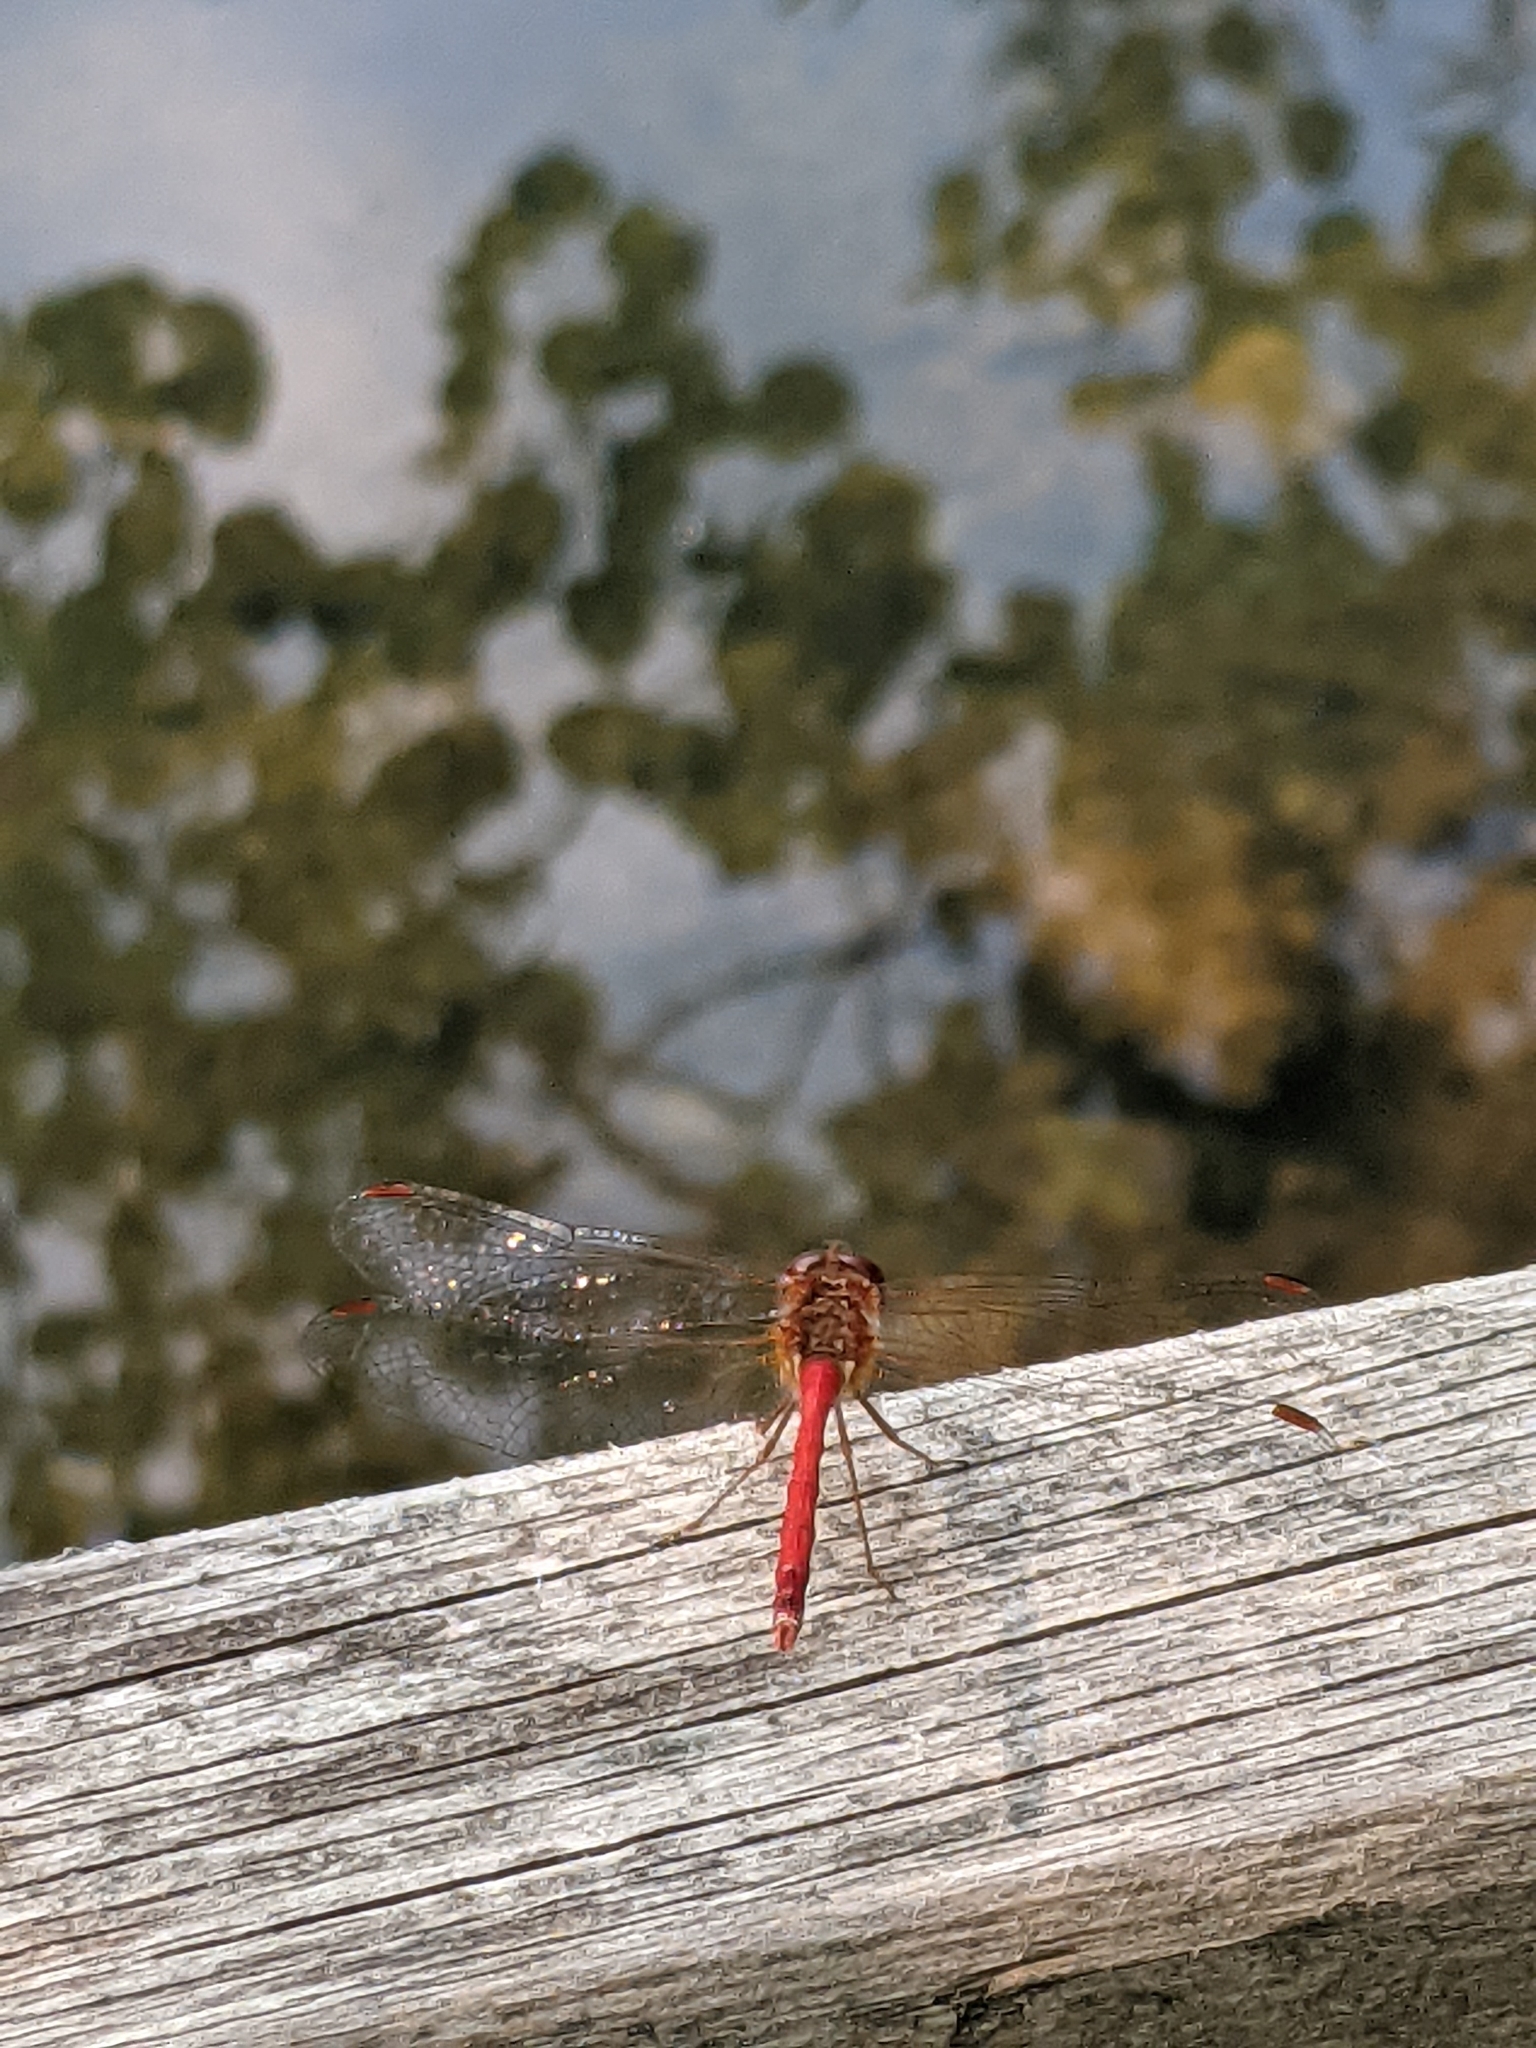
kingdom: Animalia
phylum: Arthropoda
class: Insecta
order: Odonata
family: Libellulidae
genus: Sympetrum
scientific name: Sympetrum vicinum
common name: Autumn meadowhawk
